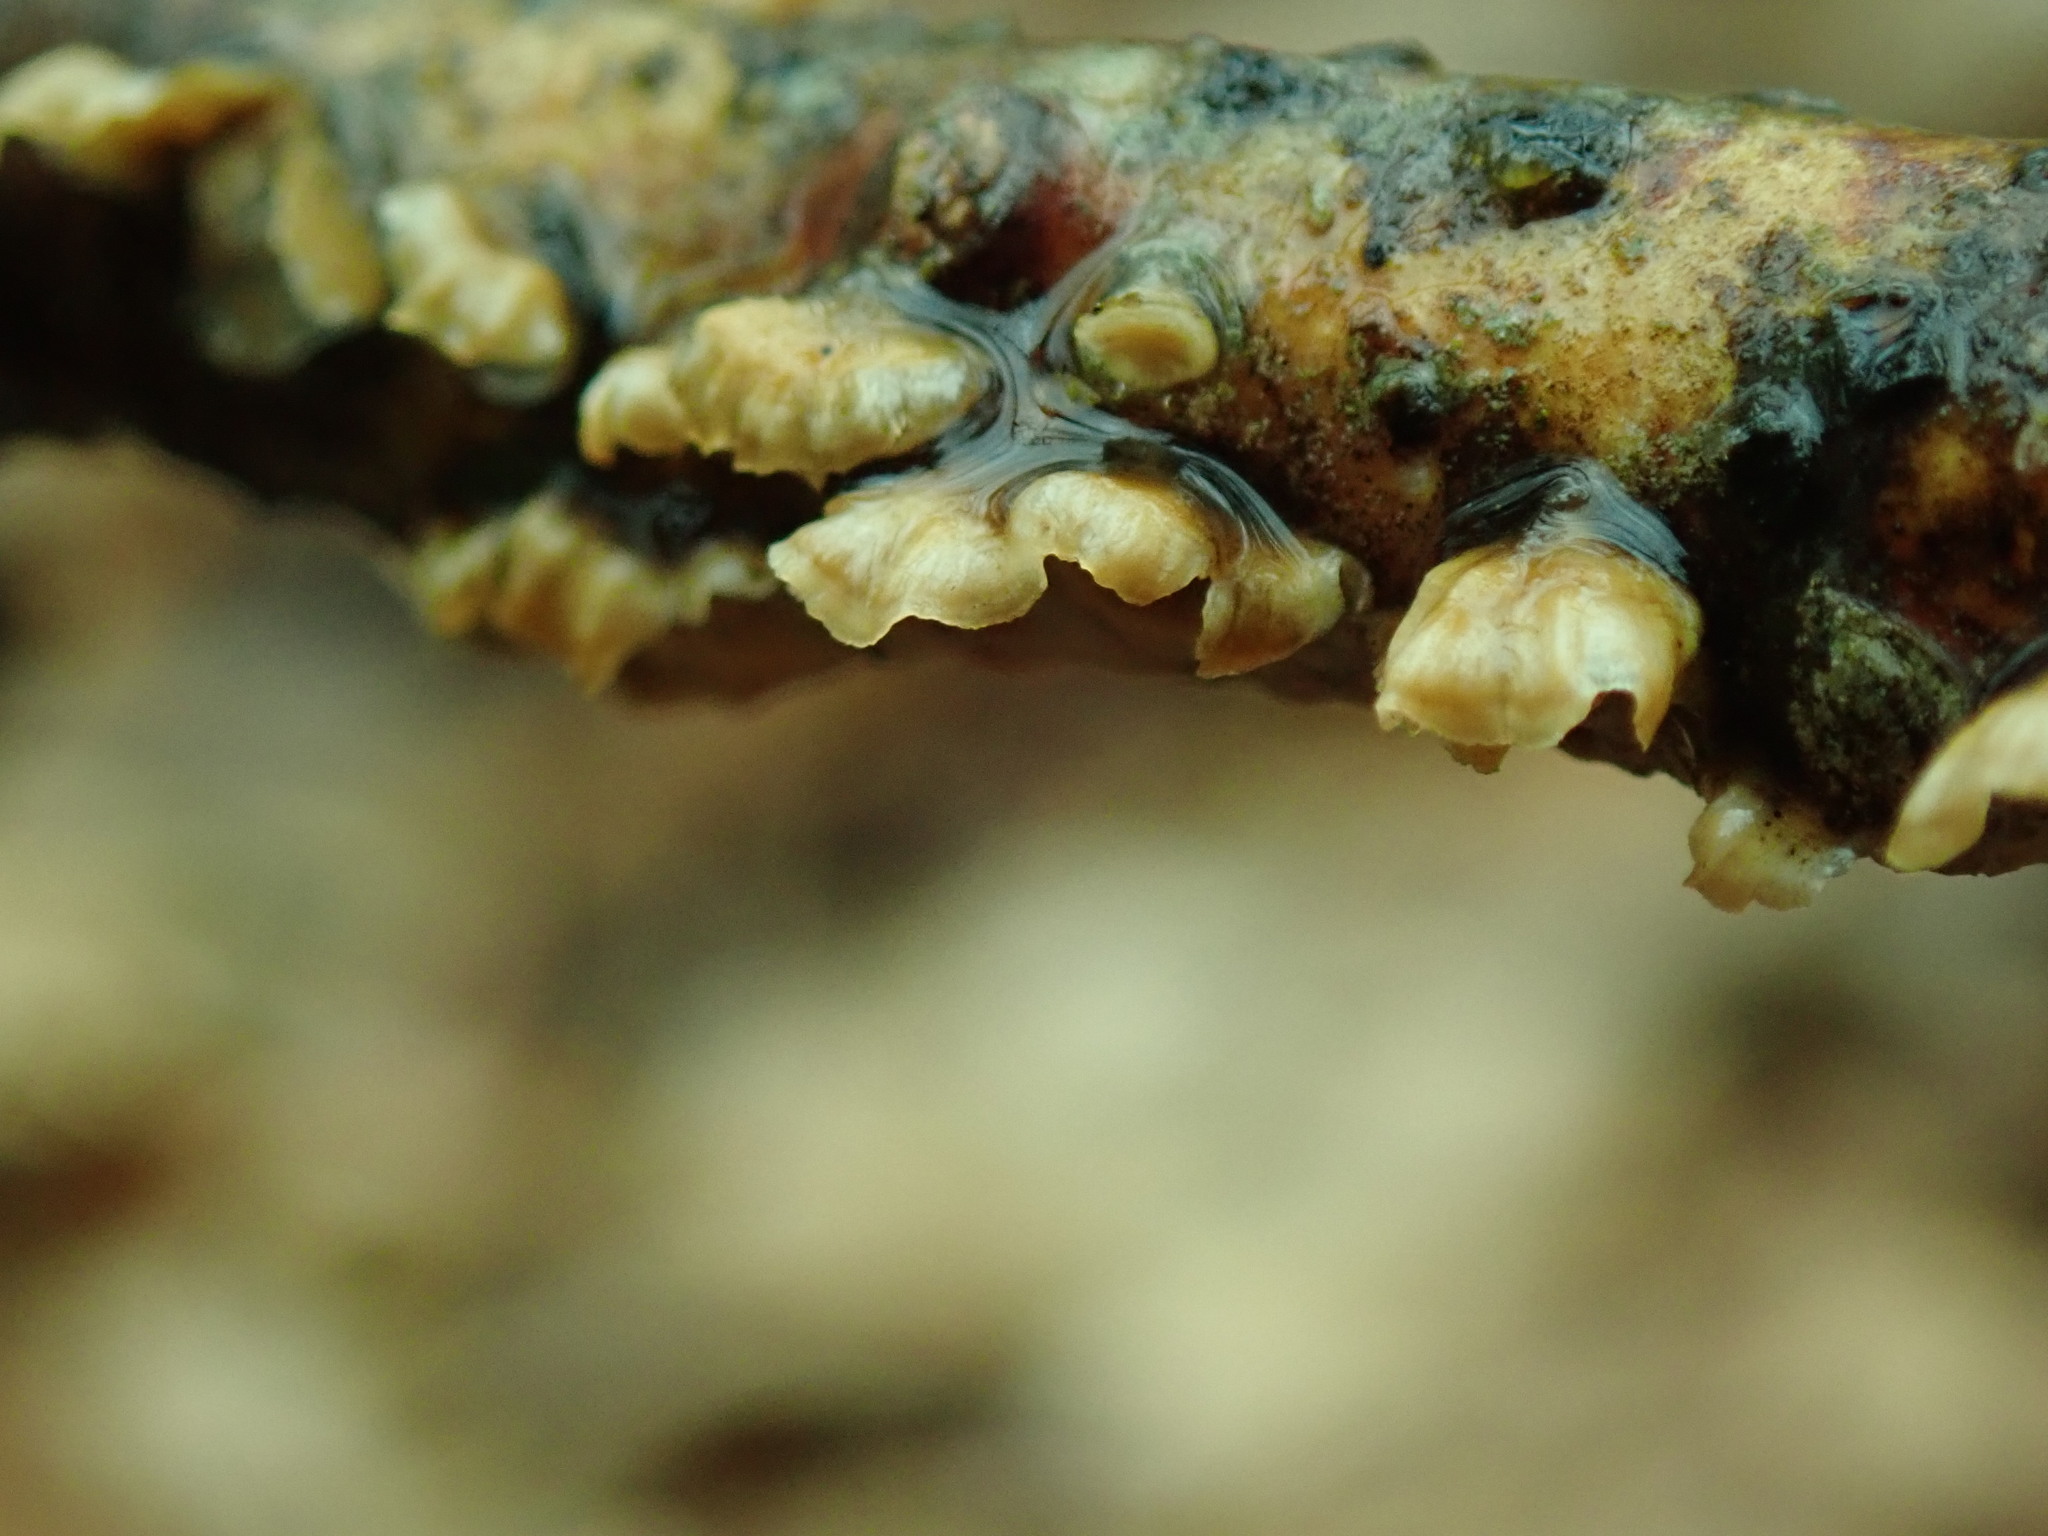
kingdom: Fungi
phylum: Basidiomycota
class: Agaricomycetes
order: Russulales
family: Stereaceae
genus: Stereum
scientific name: Stereum complicatum
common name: Crowded parchment
